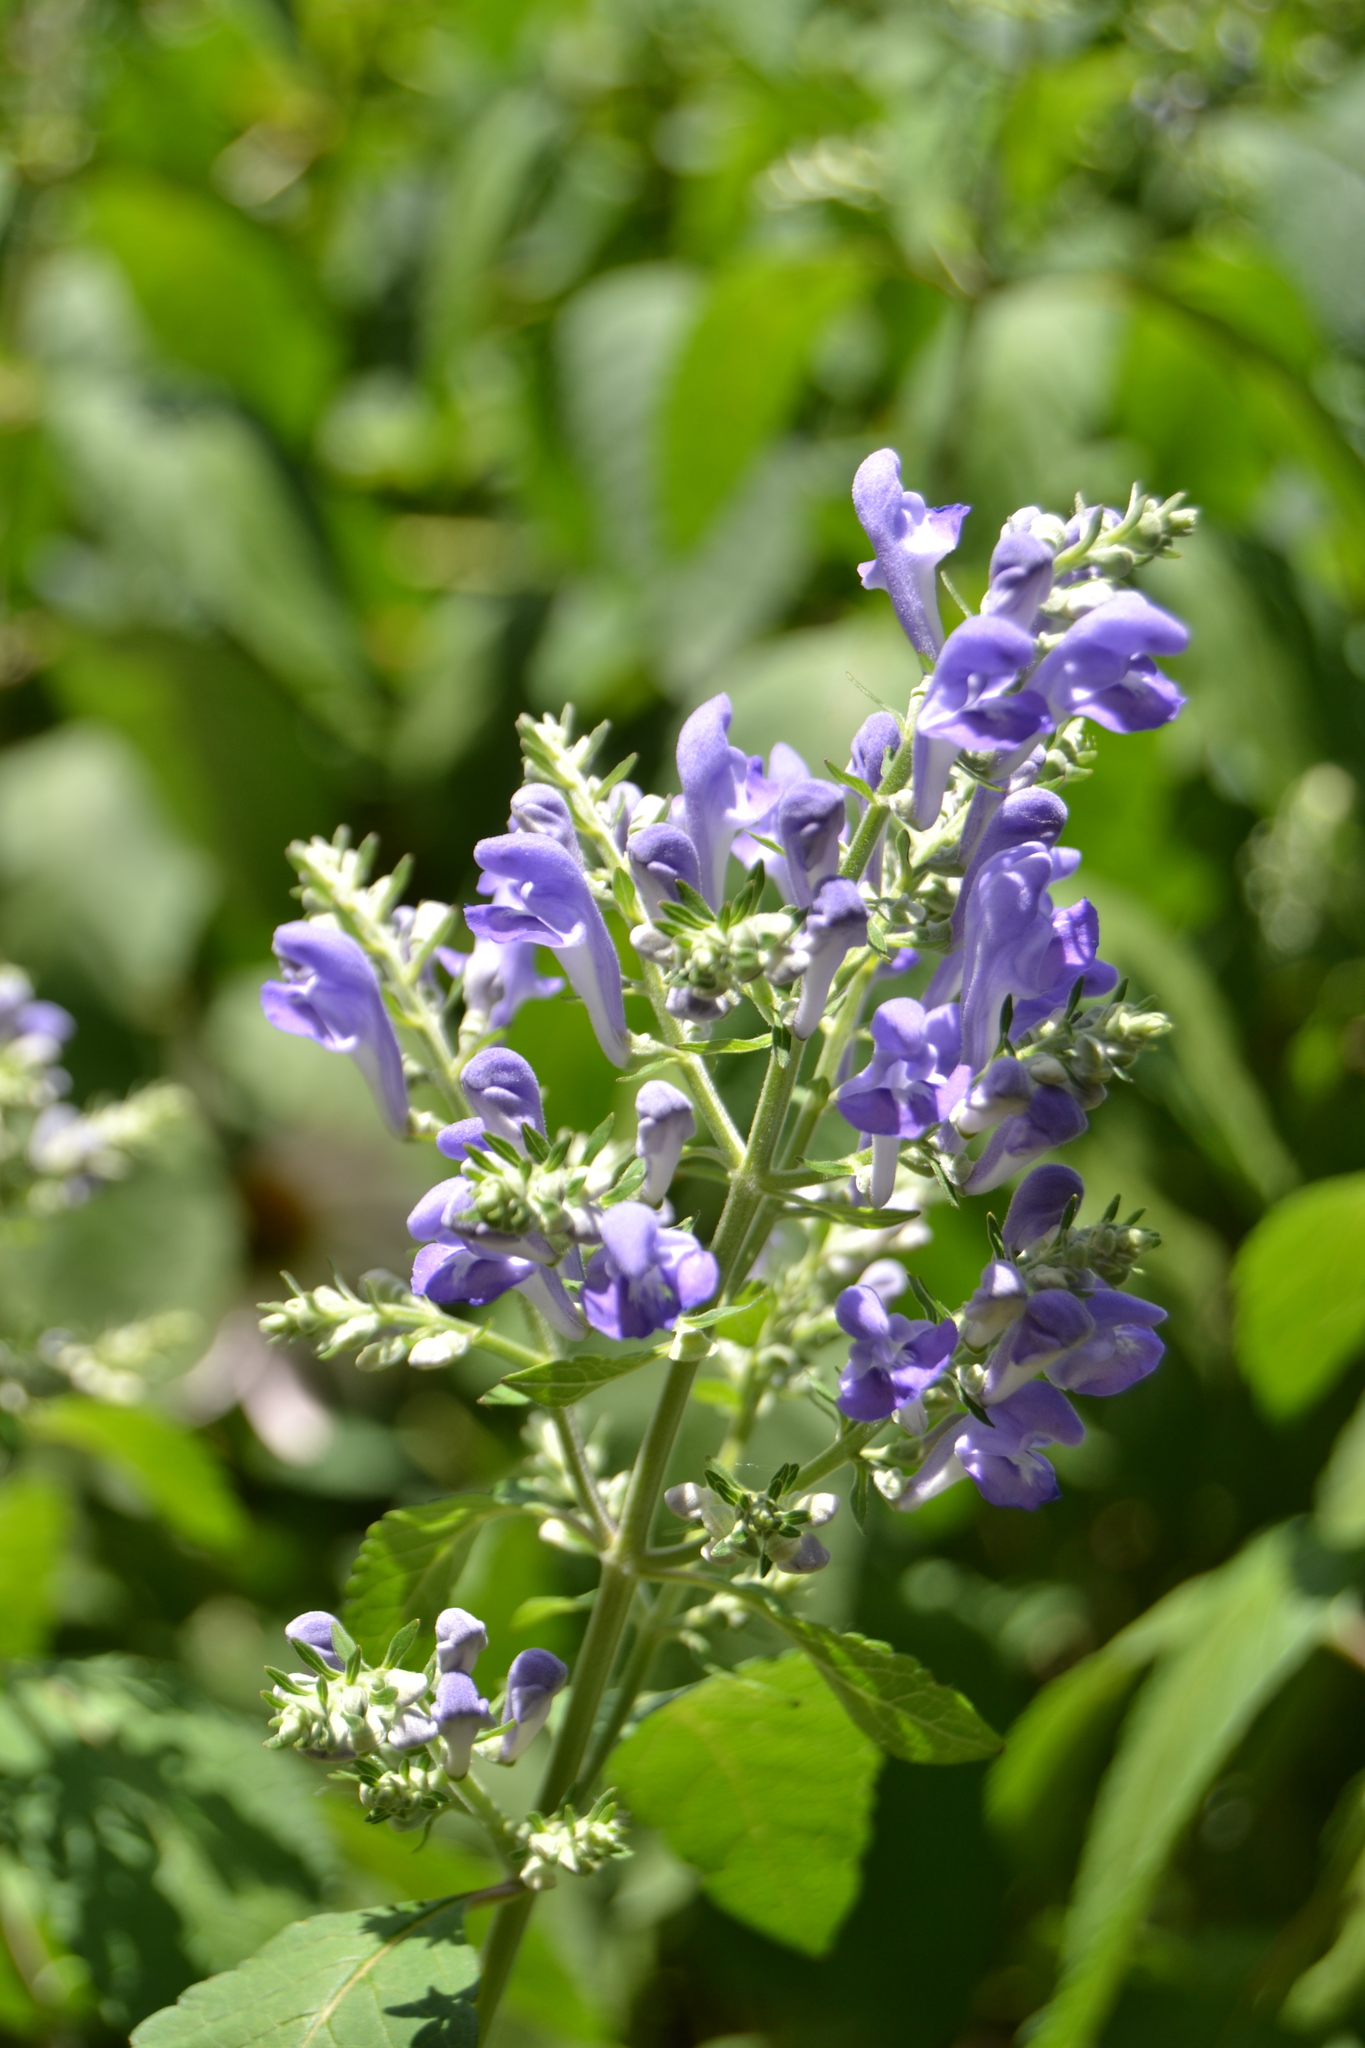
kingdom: Plantae
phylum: Tracheophyta
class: Magnoliopsida
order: Lamiales
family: Lamiaceae
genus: Scutellaria
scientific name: Scutellaria incana
